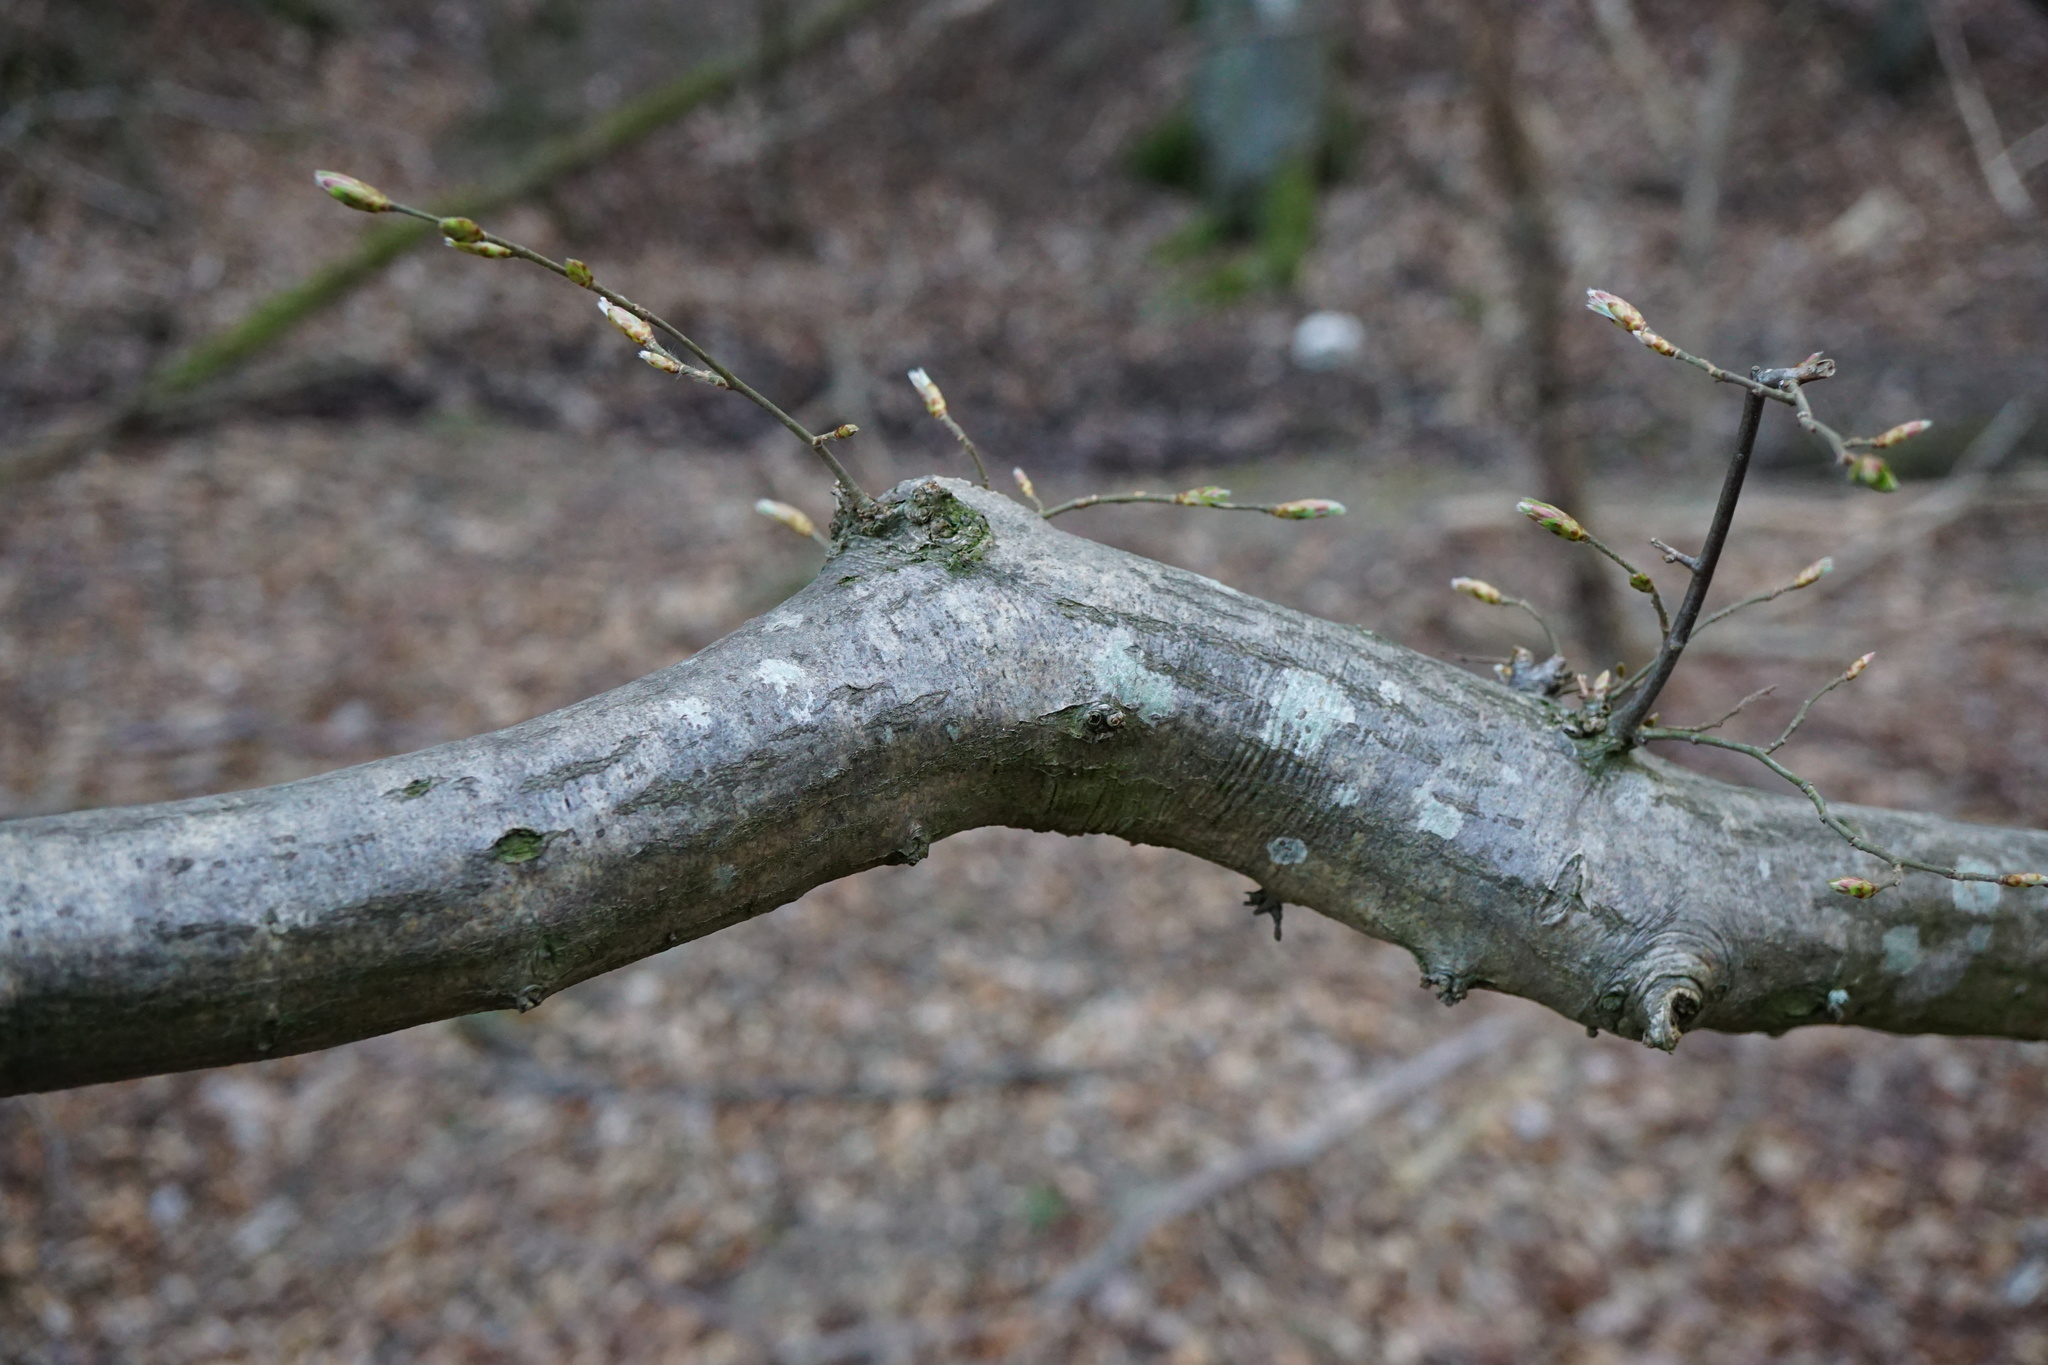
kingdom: Plantae
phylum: Tracheophyta
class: Magnoliopsida
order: Fagales
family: Betulaceae
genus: Carpinus
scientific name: Carpinus betulus
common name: Hornbeam
